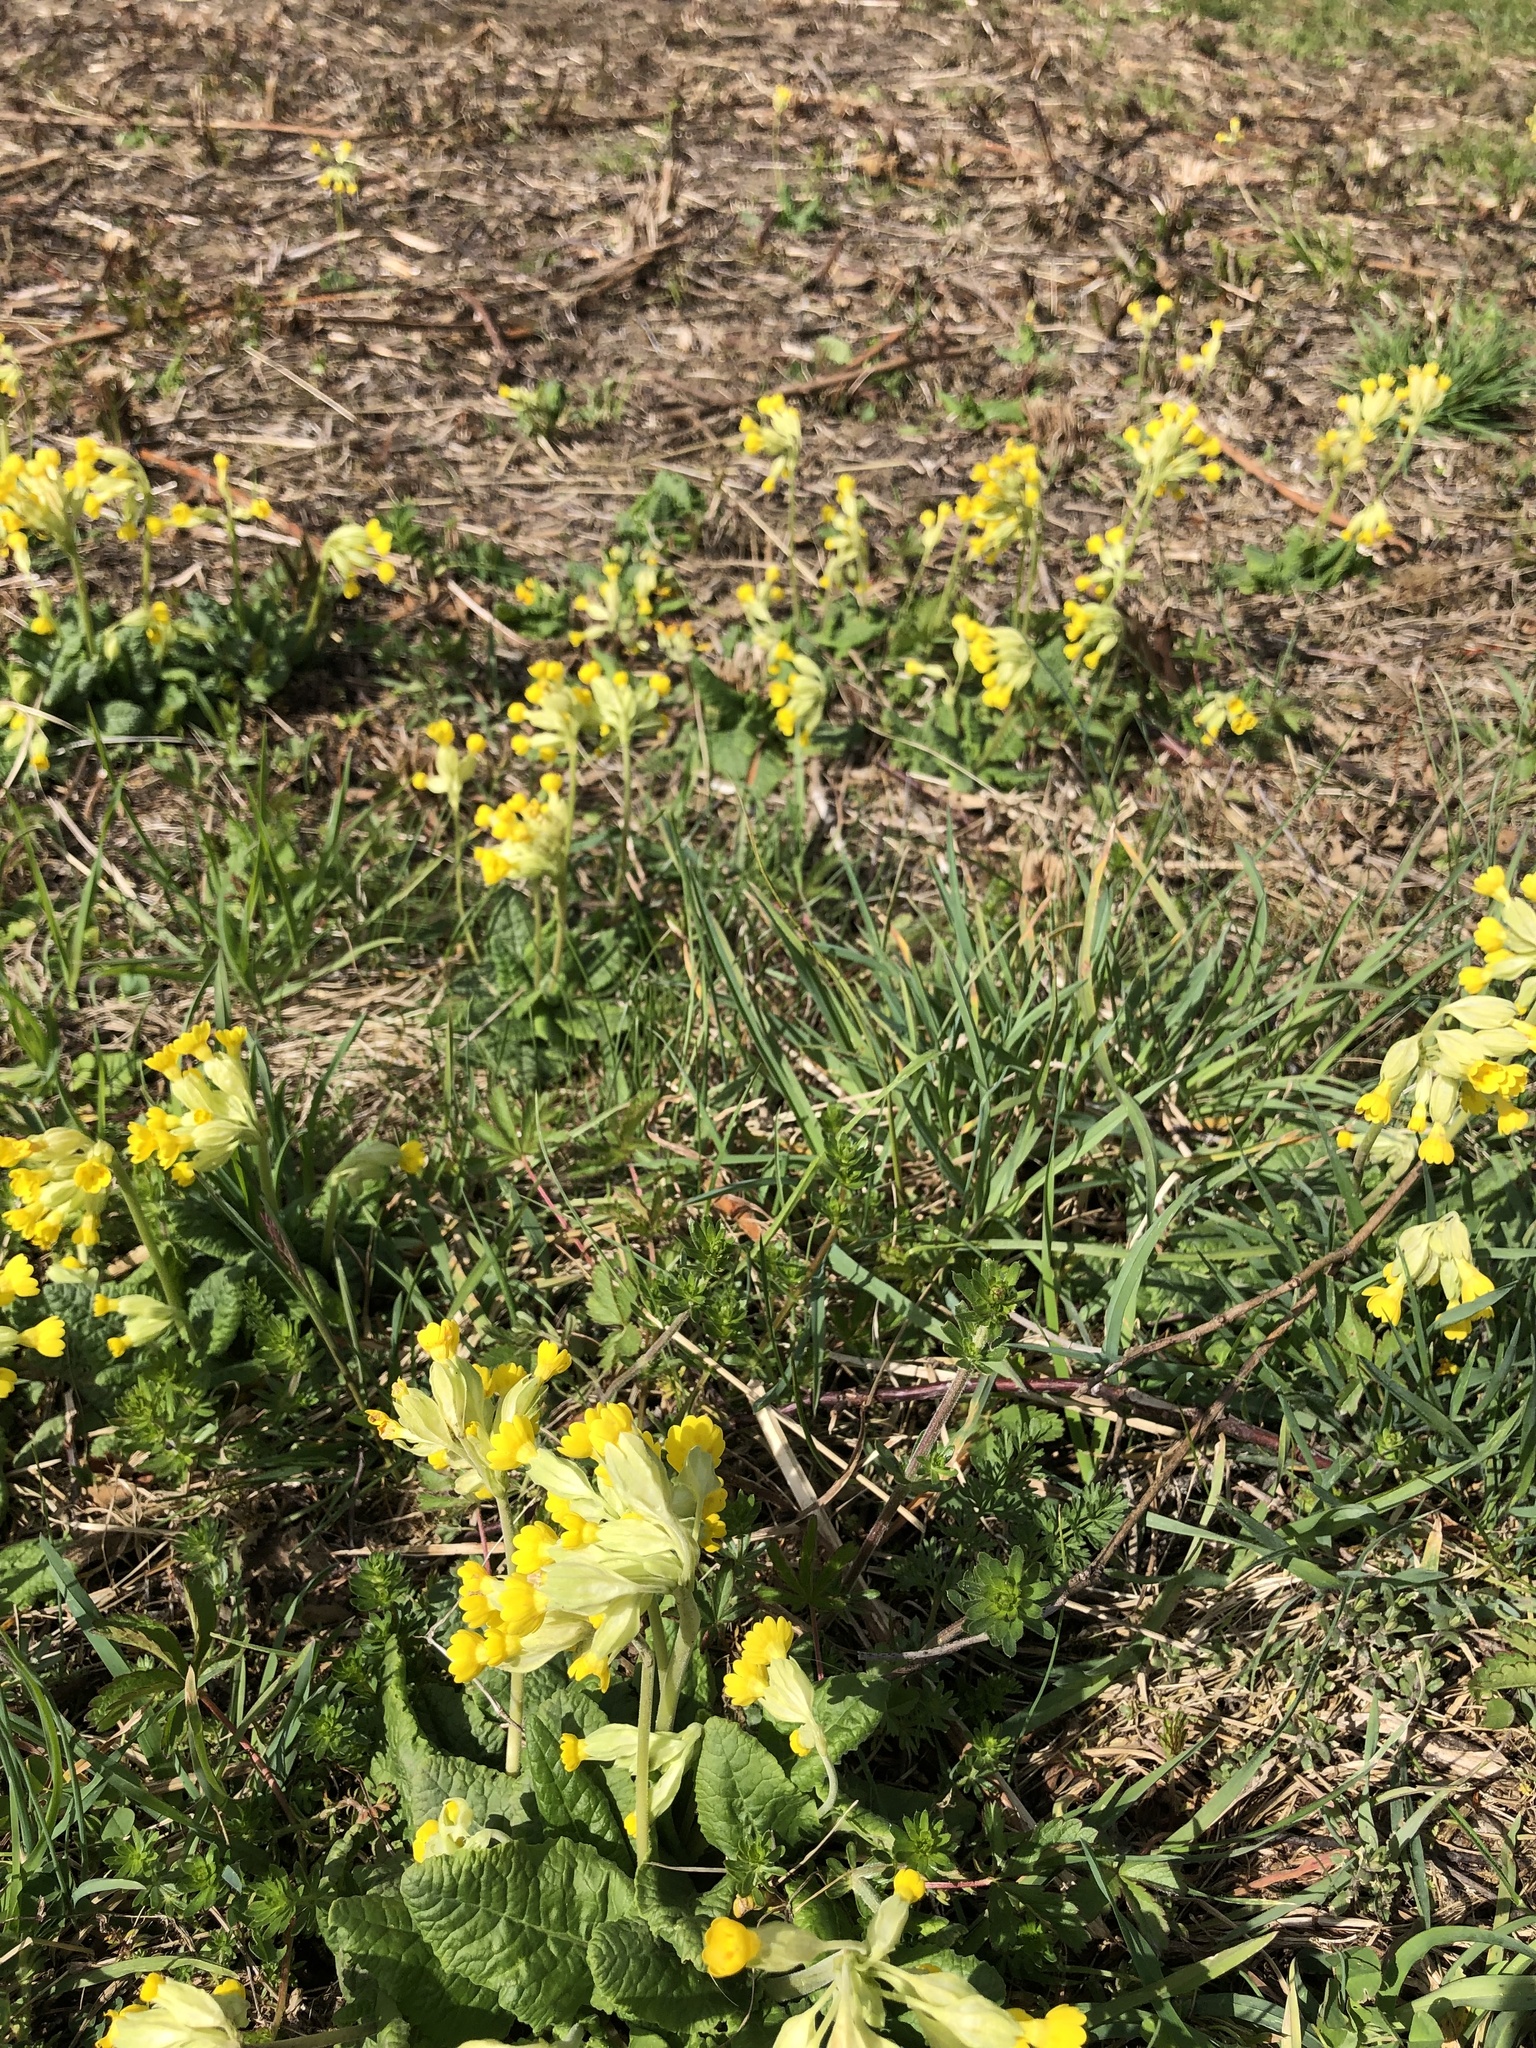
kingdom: Plantae
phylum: Tracheophyta
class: Magnoliopsida
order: Ericales
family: Primulaceae
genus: Primula
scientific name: Primula veris
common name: Cowslip
